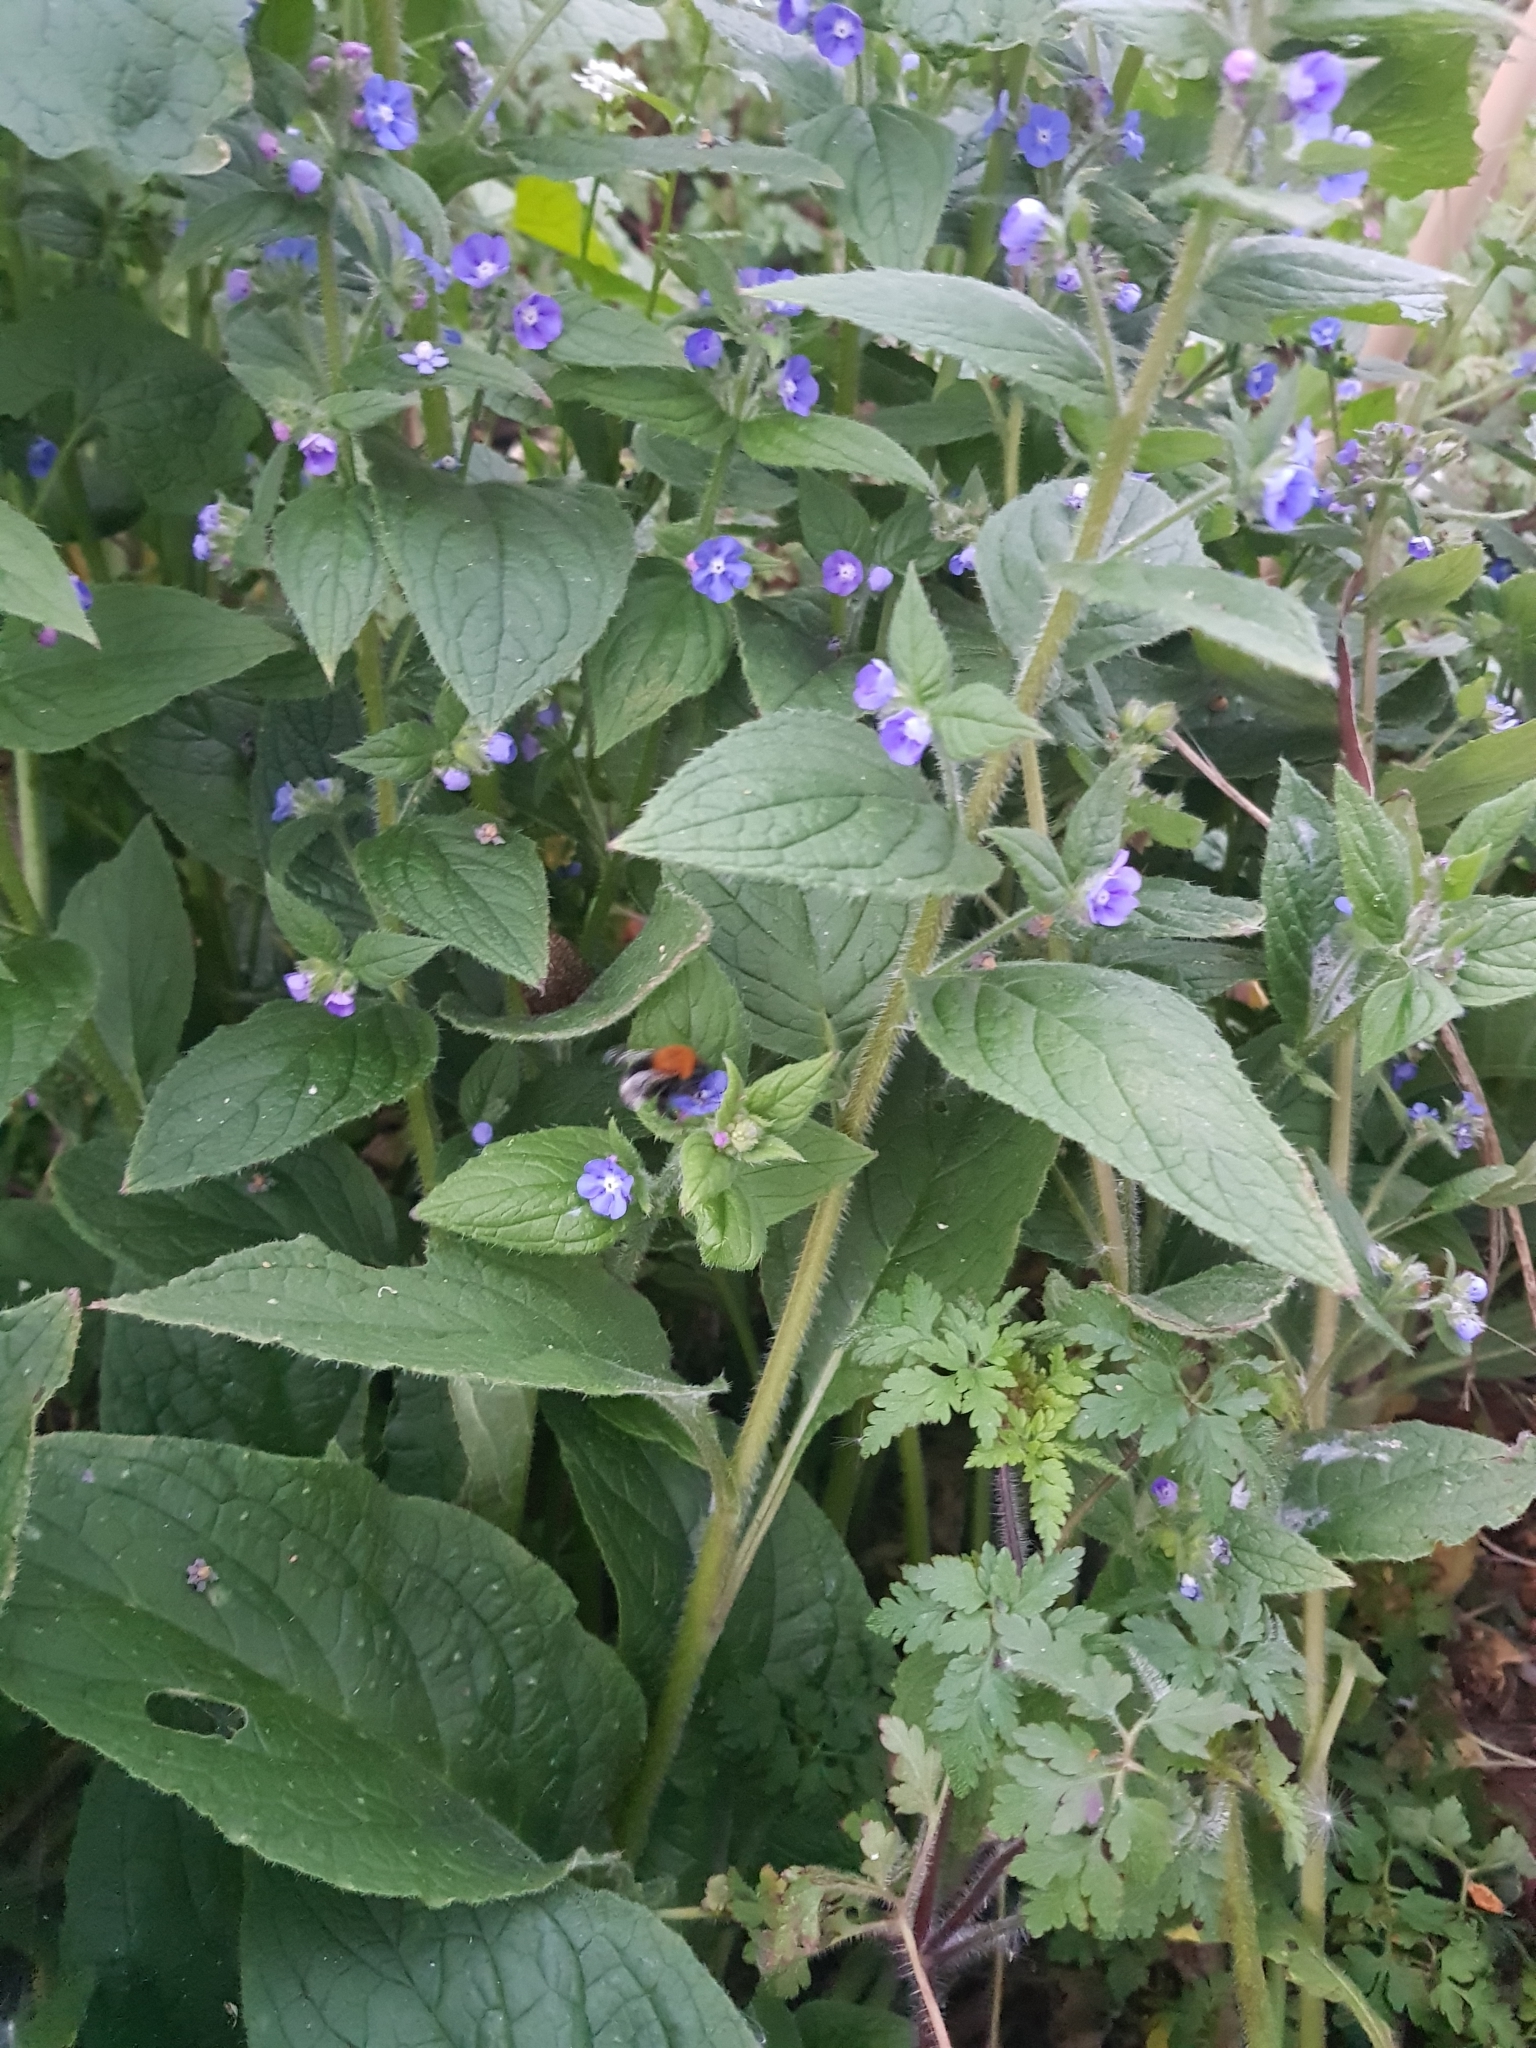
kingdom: Animalia
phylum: Arthropoda
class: Insecta
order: Hymenoptera
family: Apidae
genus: Bombus
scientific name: Bombus hypnorum
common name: New garden bumblebee
